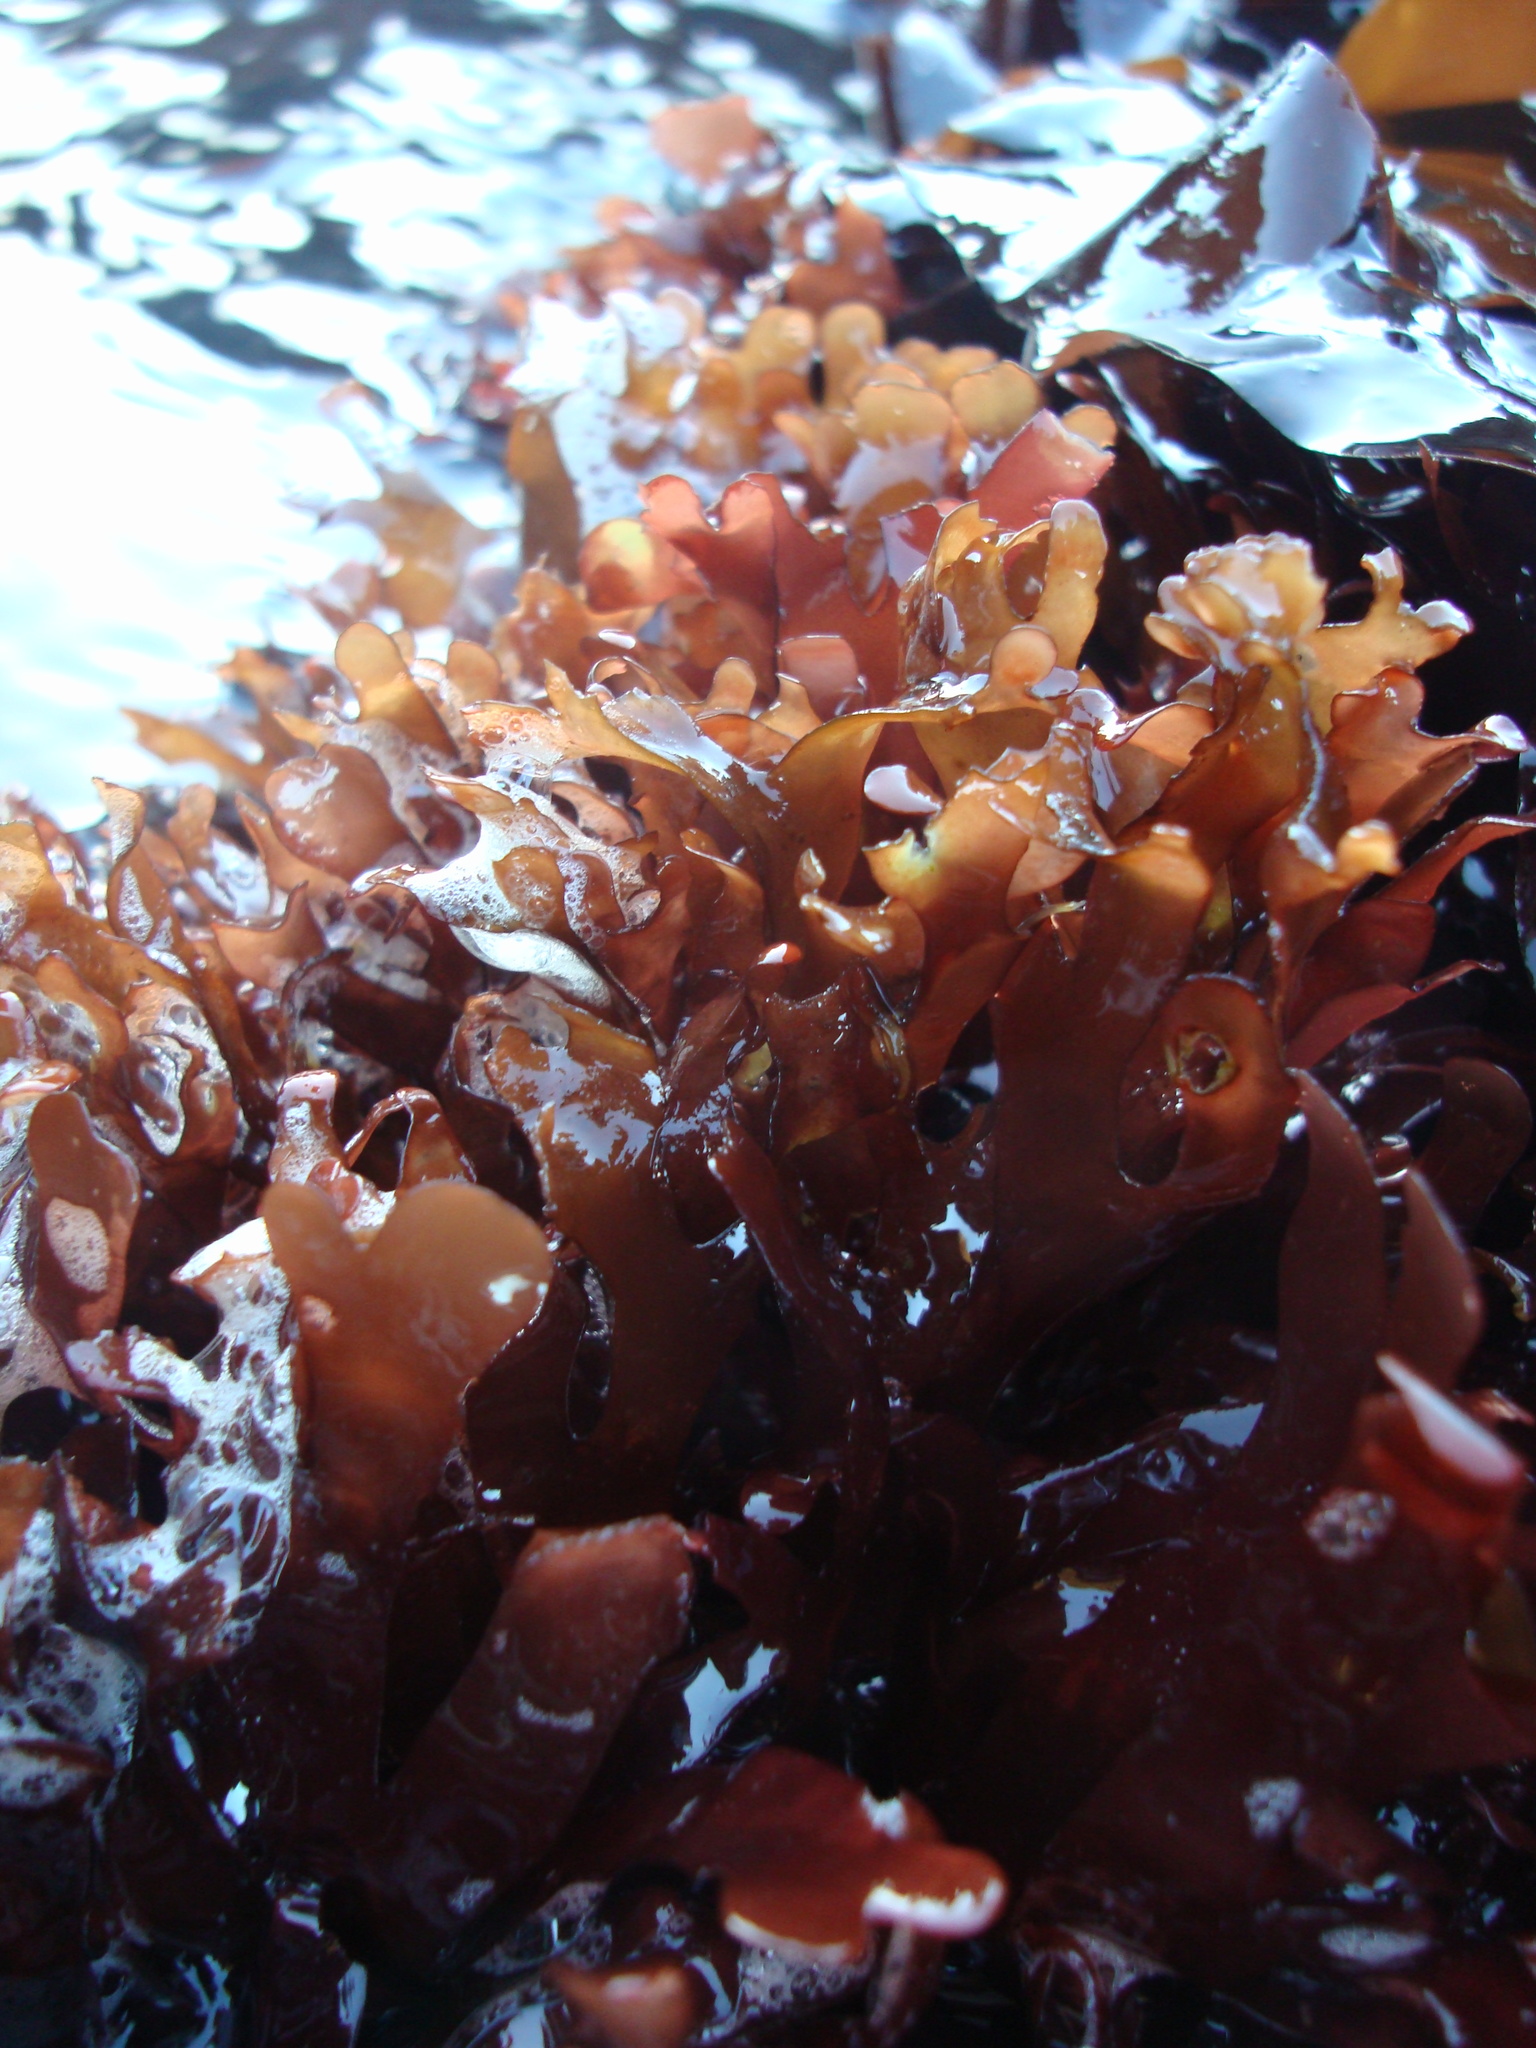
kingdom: Plantae
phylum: Rhodophyta
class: Florideophyceae
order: Rhodymeniales
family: Rhodymeniaceae
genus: Rhodymenia
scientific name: Rhodymenia skottsbergi
